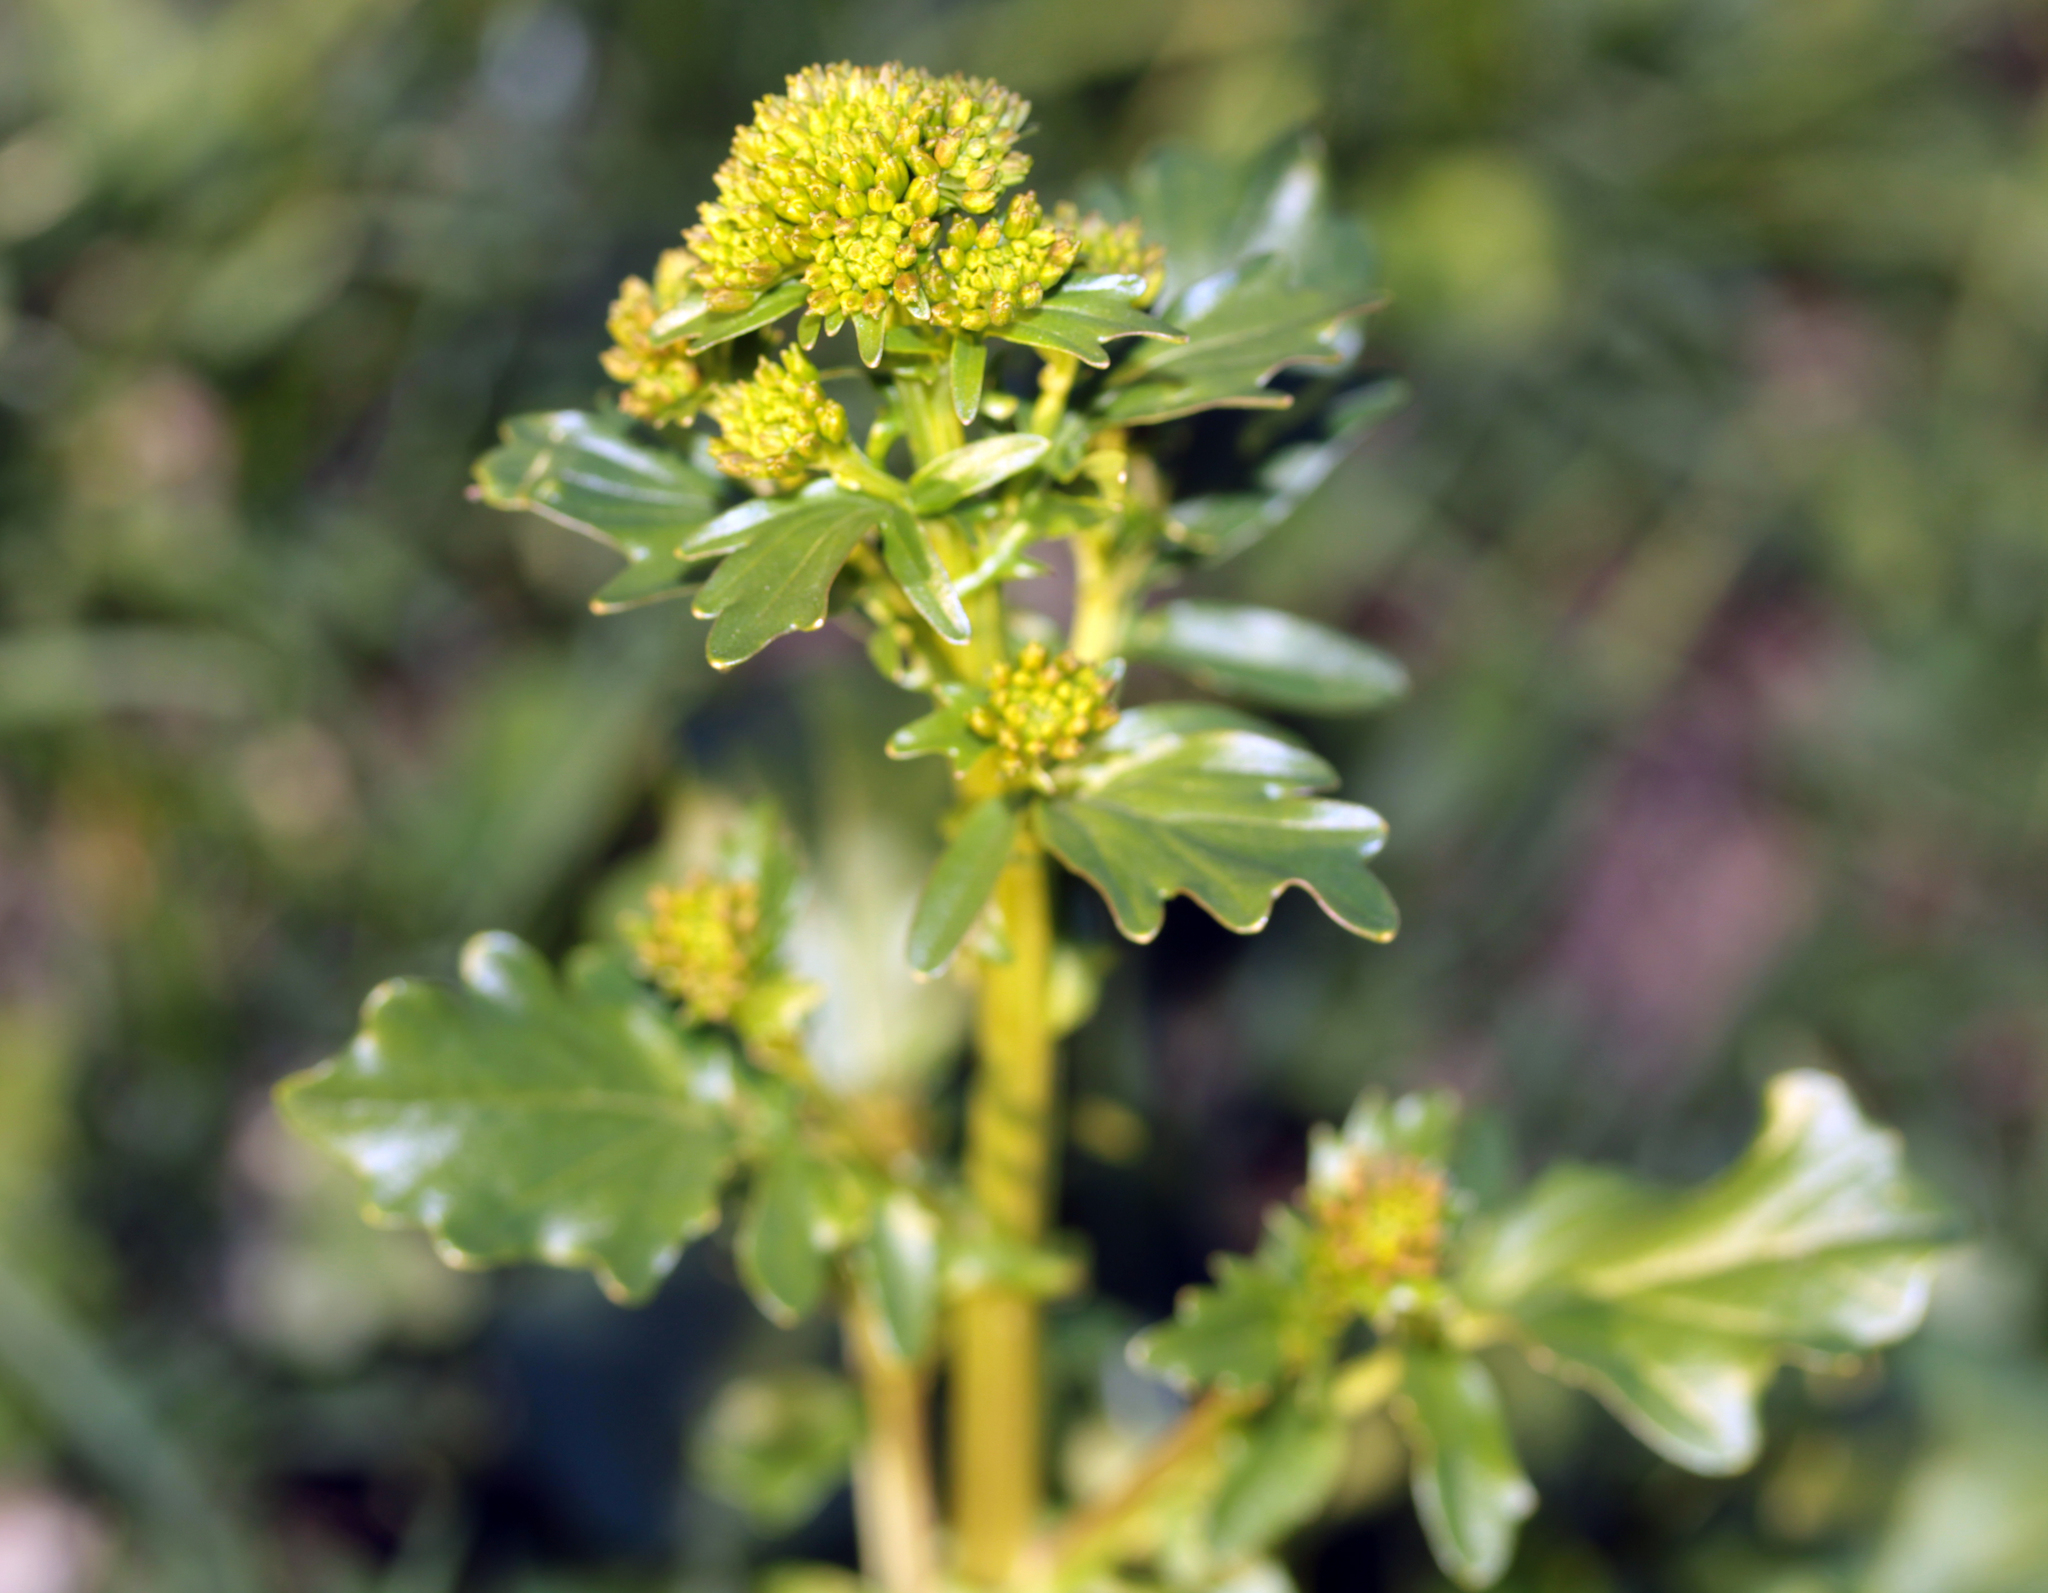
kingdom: Plantae
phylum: Tracheophyta
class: Magnoliopsida
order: Brassicales
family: Brassicaceae
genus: Barbarea
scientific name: Barbarea vulgaris
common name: Cressy-greens
